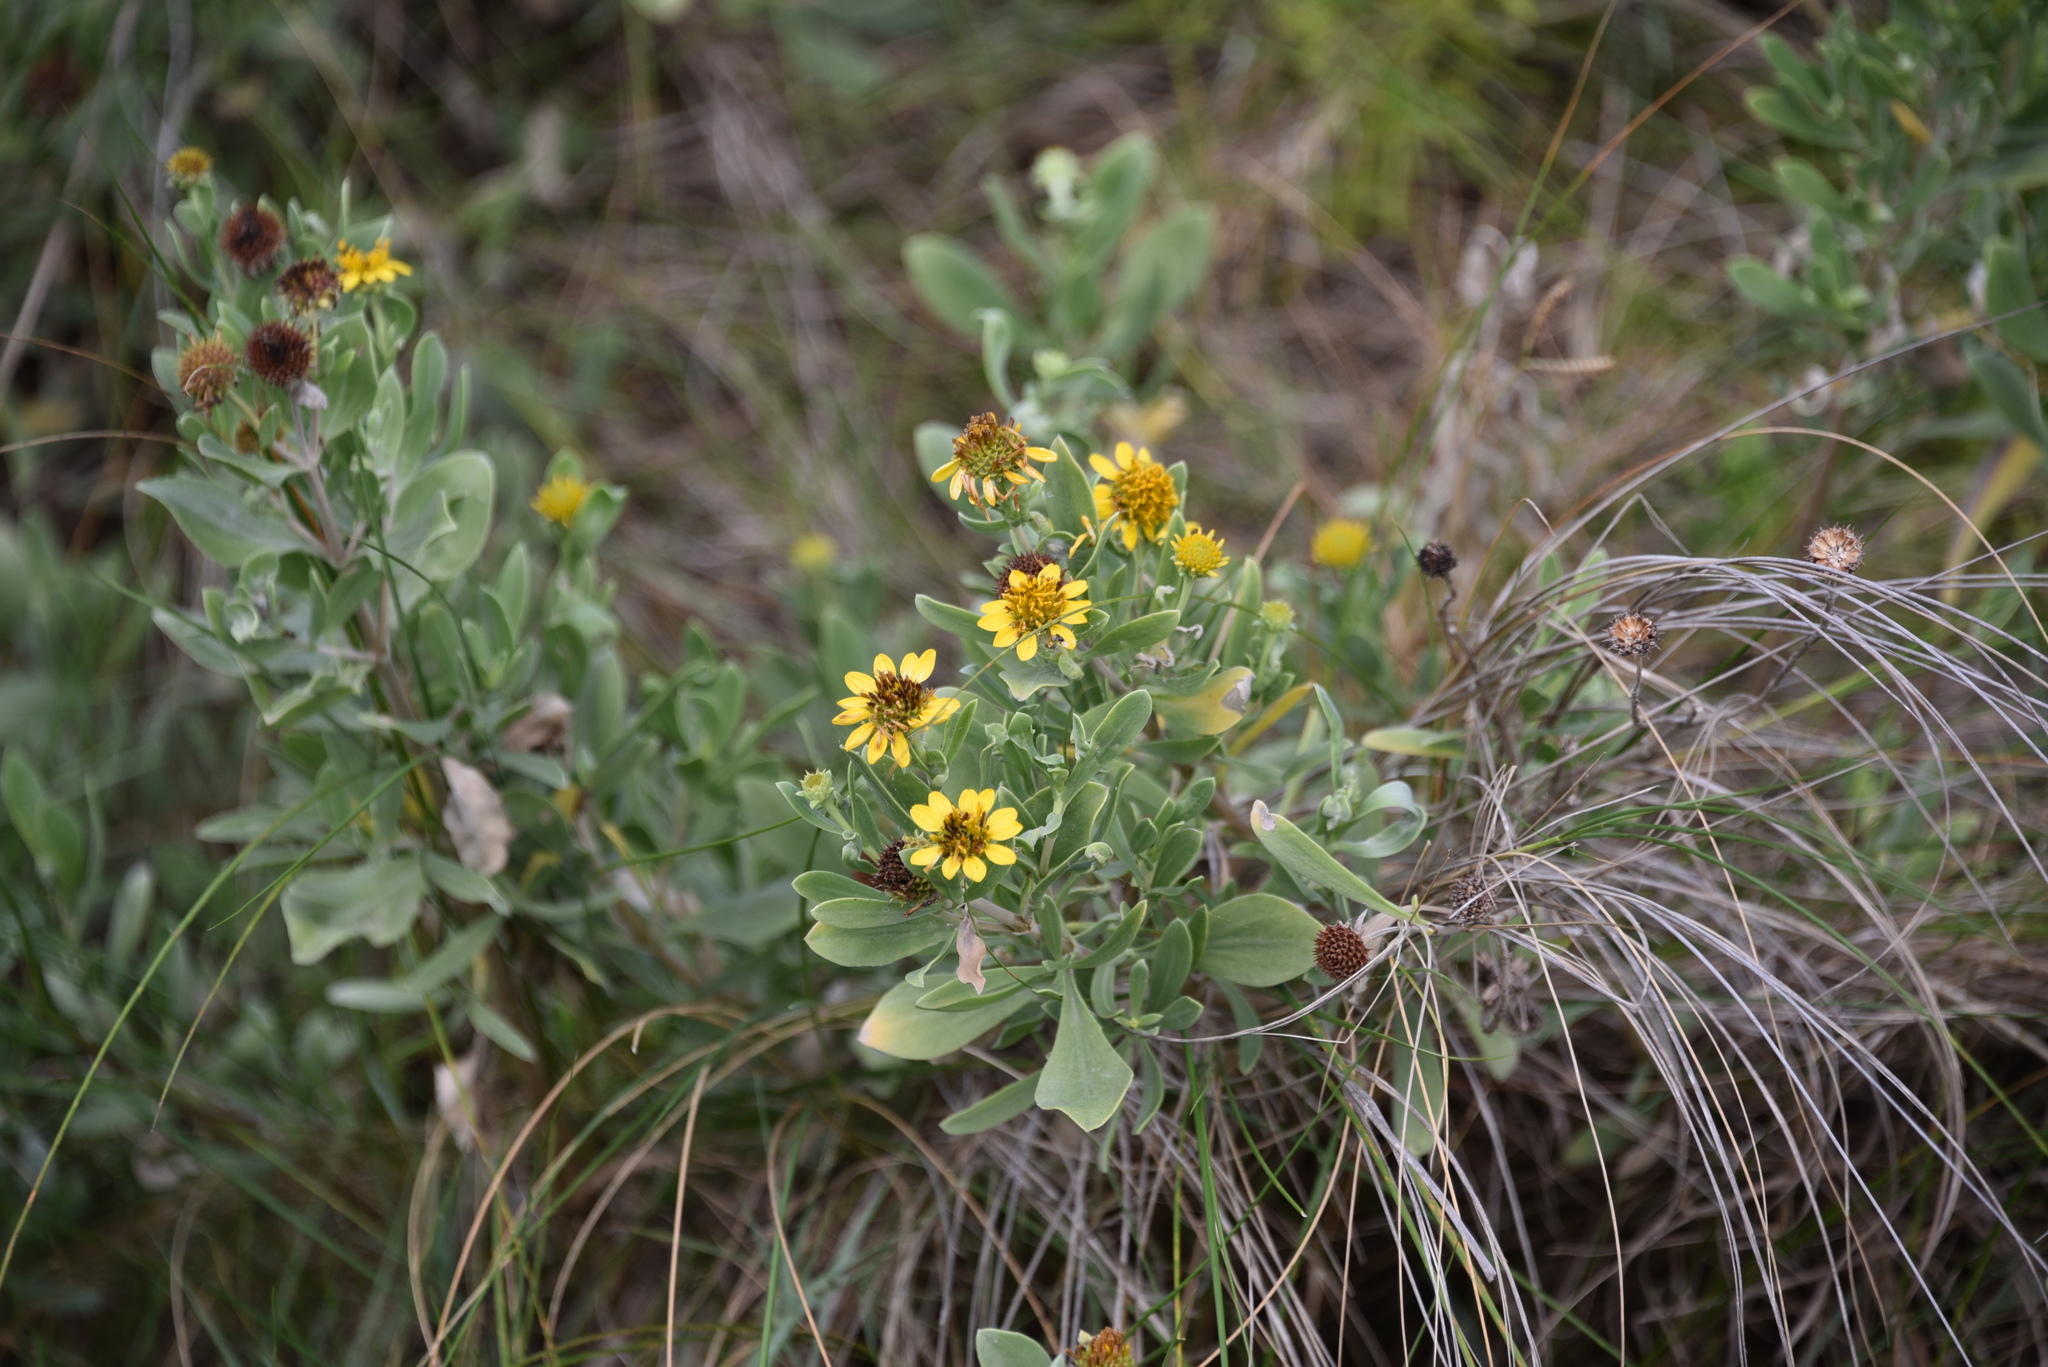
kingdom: Plantae
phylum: Tracheophyta
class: Magnoliopsida
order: Asterales
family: Asteraceae
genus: Borrichia
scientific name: Borrichia frutescens
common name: Sea oxeye
